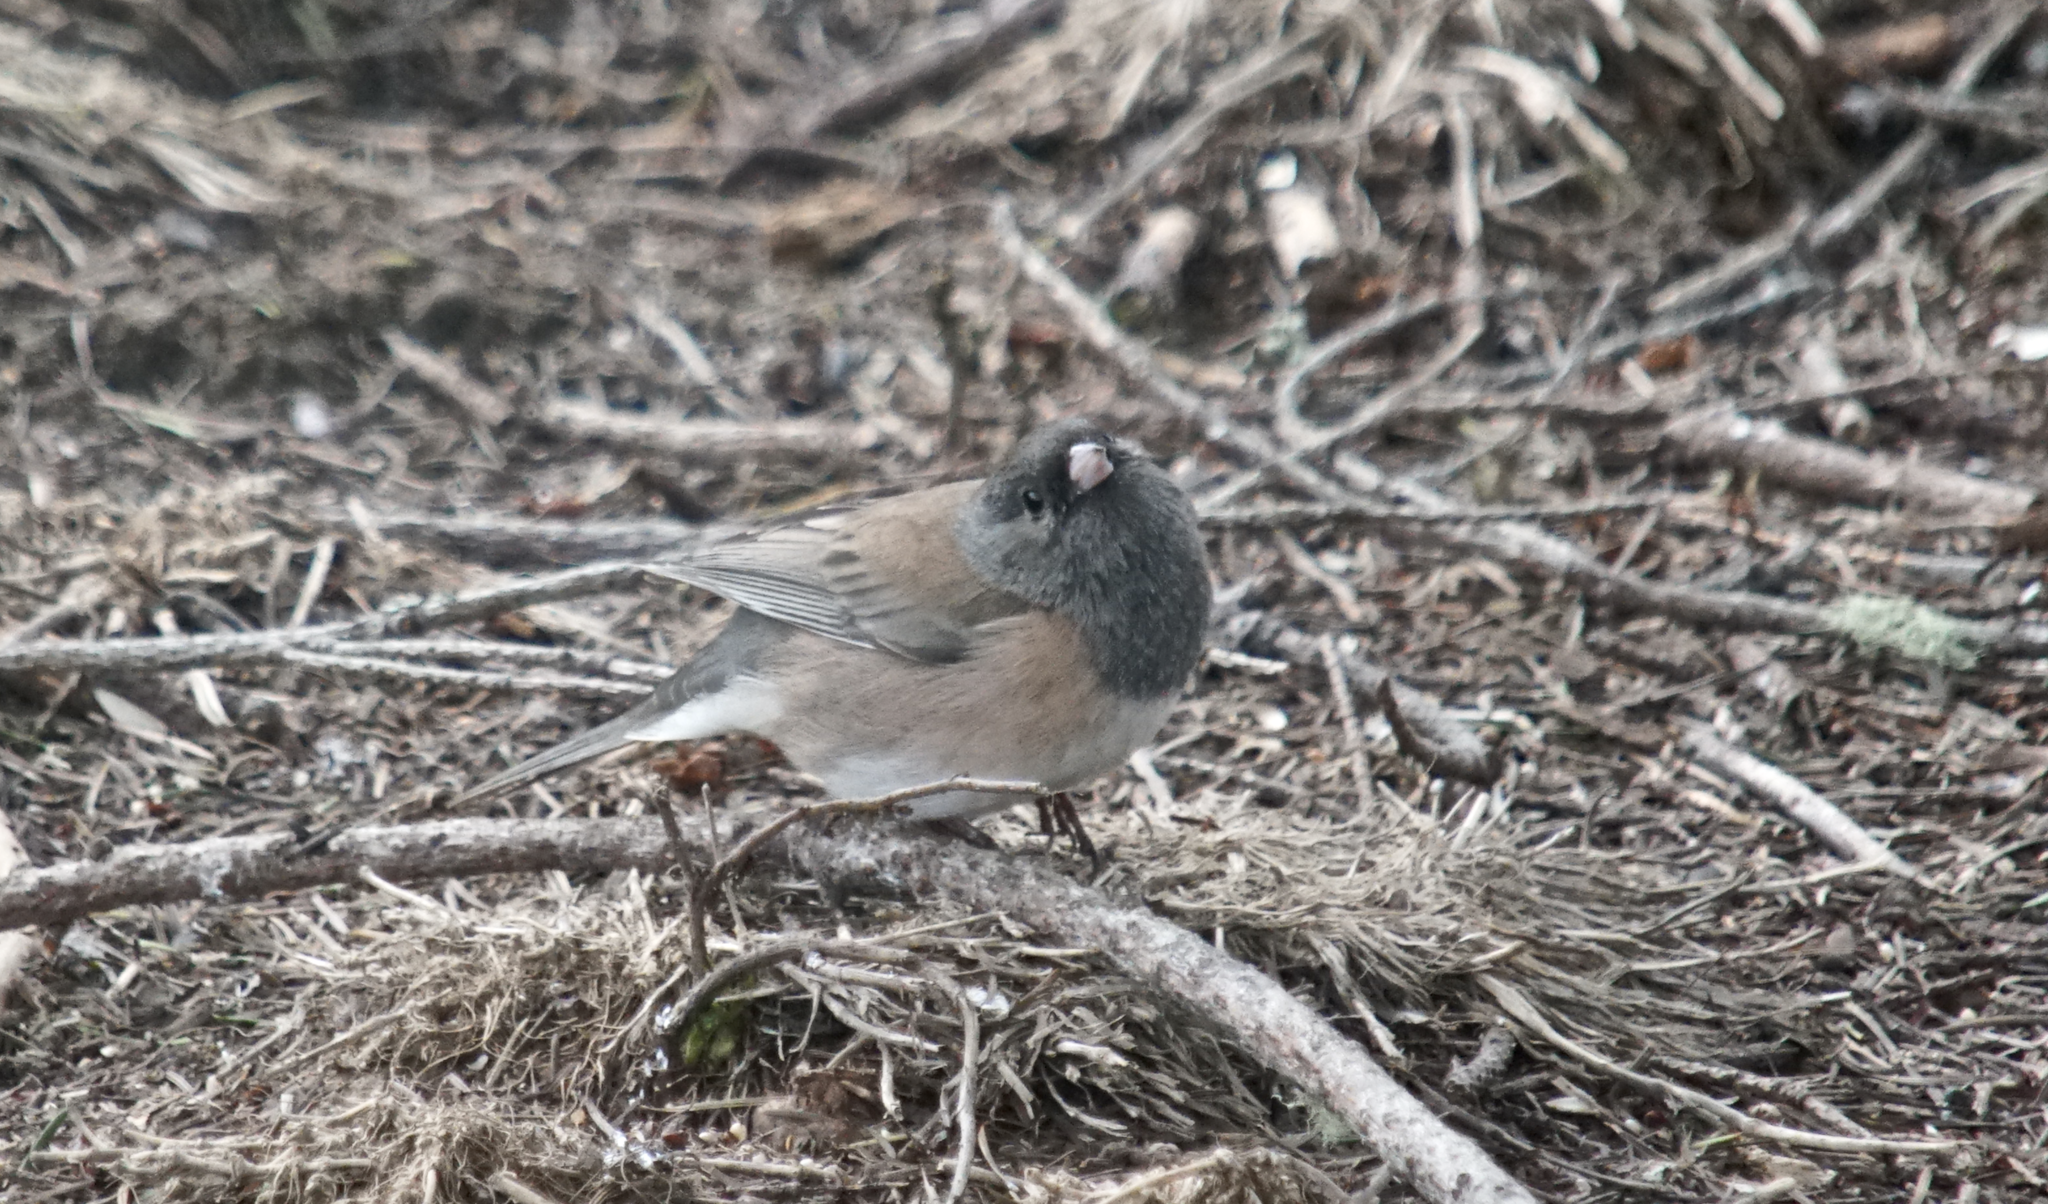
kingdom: Animalia
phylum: Chordata
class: Aves
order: Passeriformes
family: Passerellidae
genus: Junco
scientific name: Junco hyemalis
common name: Dark-eyed junco
